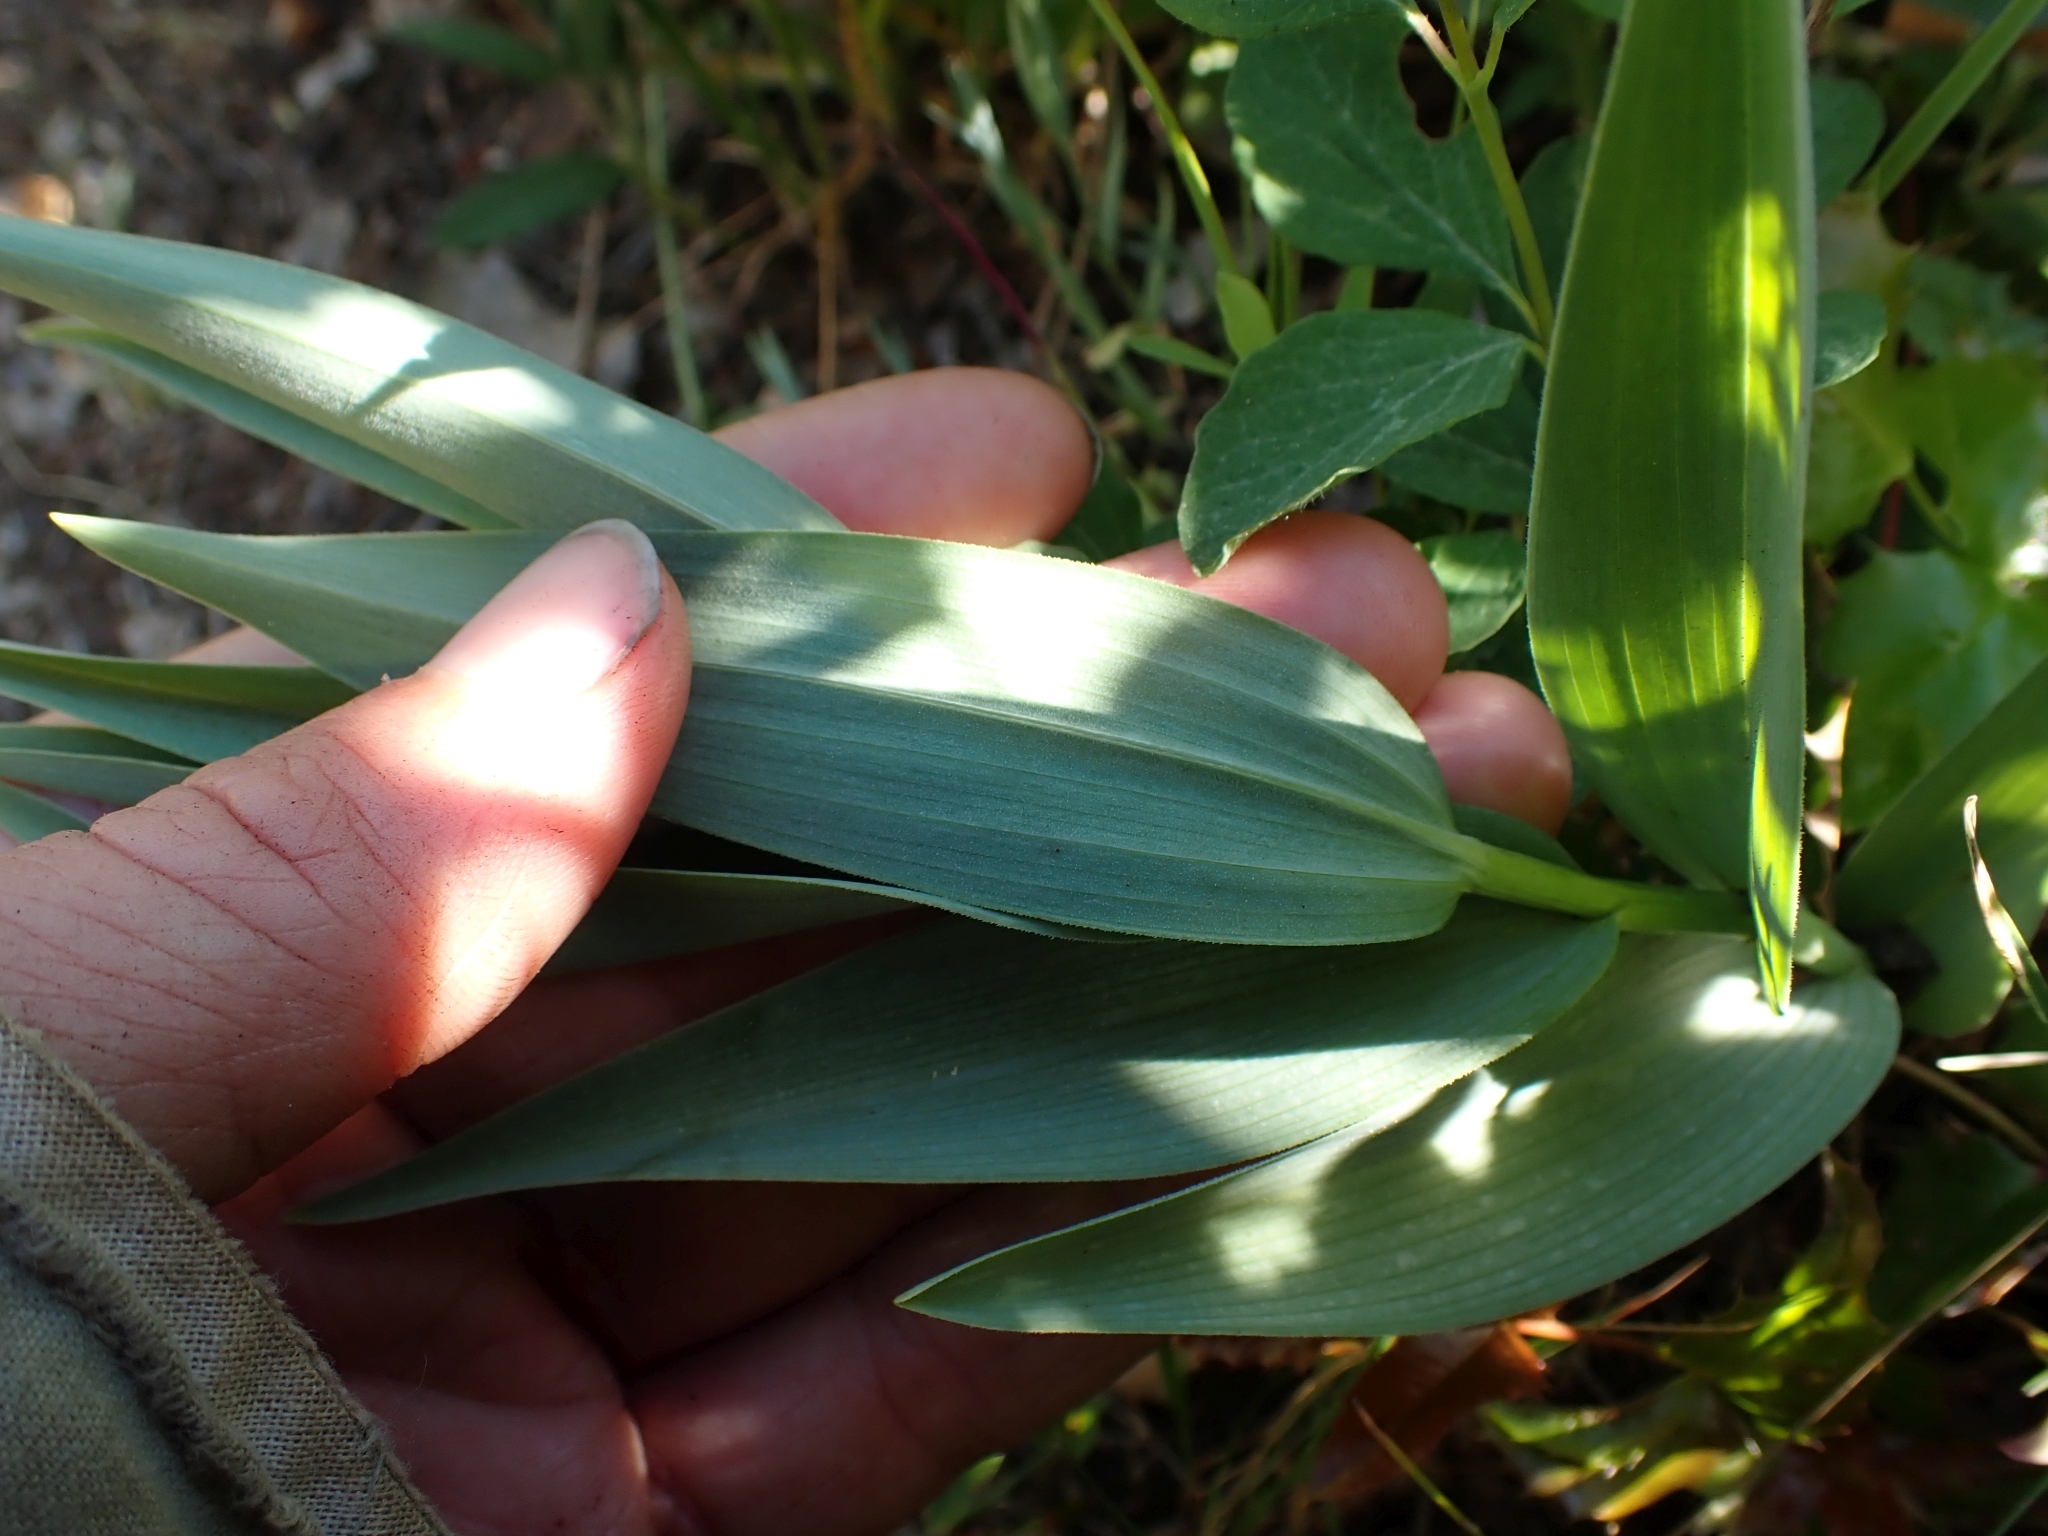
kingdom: Plantae
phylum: Tracheophyta
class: Liliopsida
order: Asparagales
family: Asparagaceae
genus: Maianthemum
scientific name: Maianthemum stellatum
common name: Little false solomon's seal
